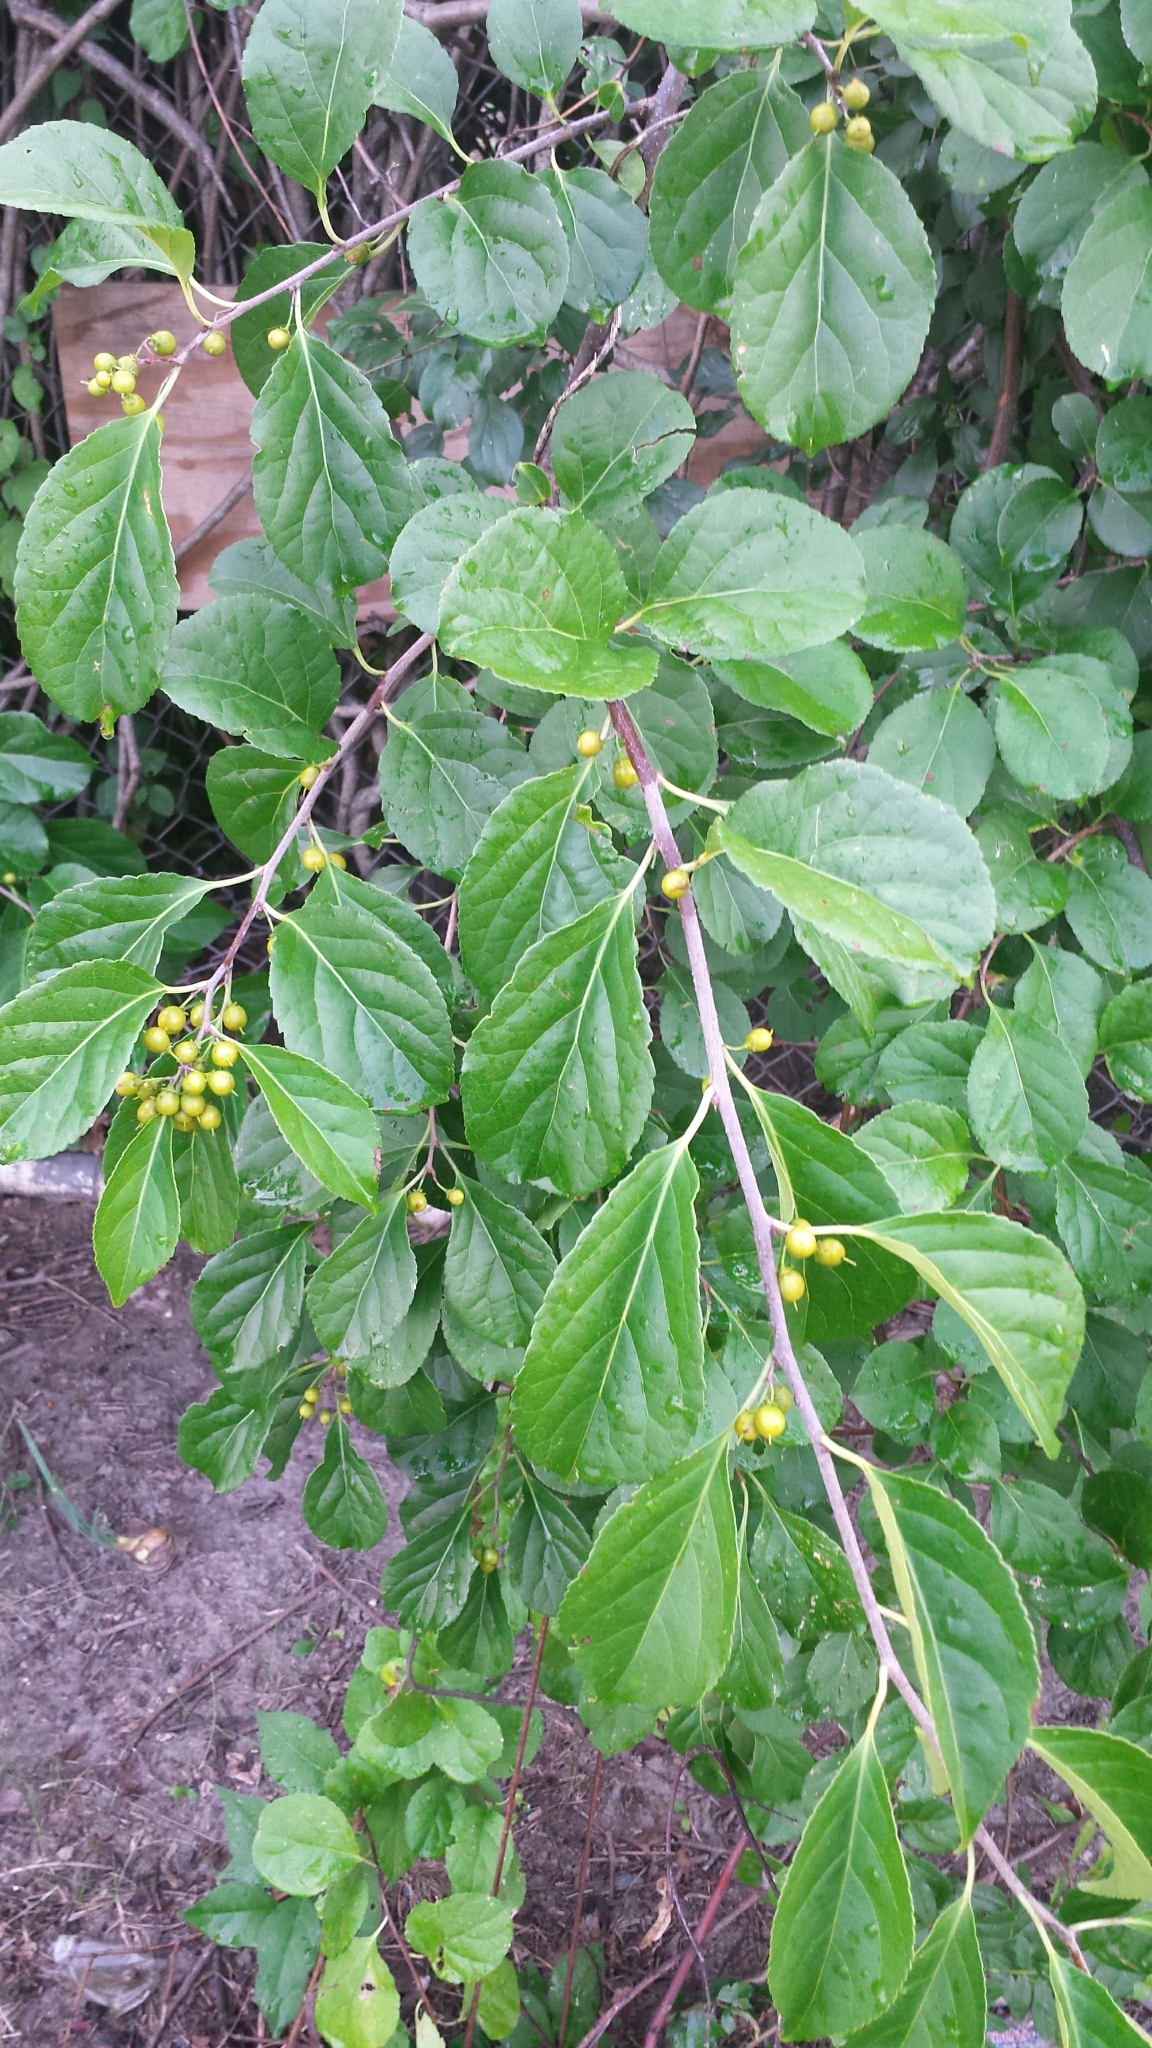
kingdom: Plantae
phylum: Tracheophyta
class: Magnoliopsida
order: Celastrales
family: Celastraceae
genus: Celastrus
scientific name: Celastrus orbiculatus
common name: Oriental bittersweet
